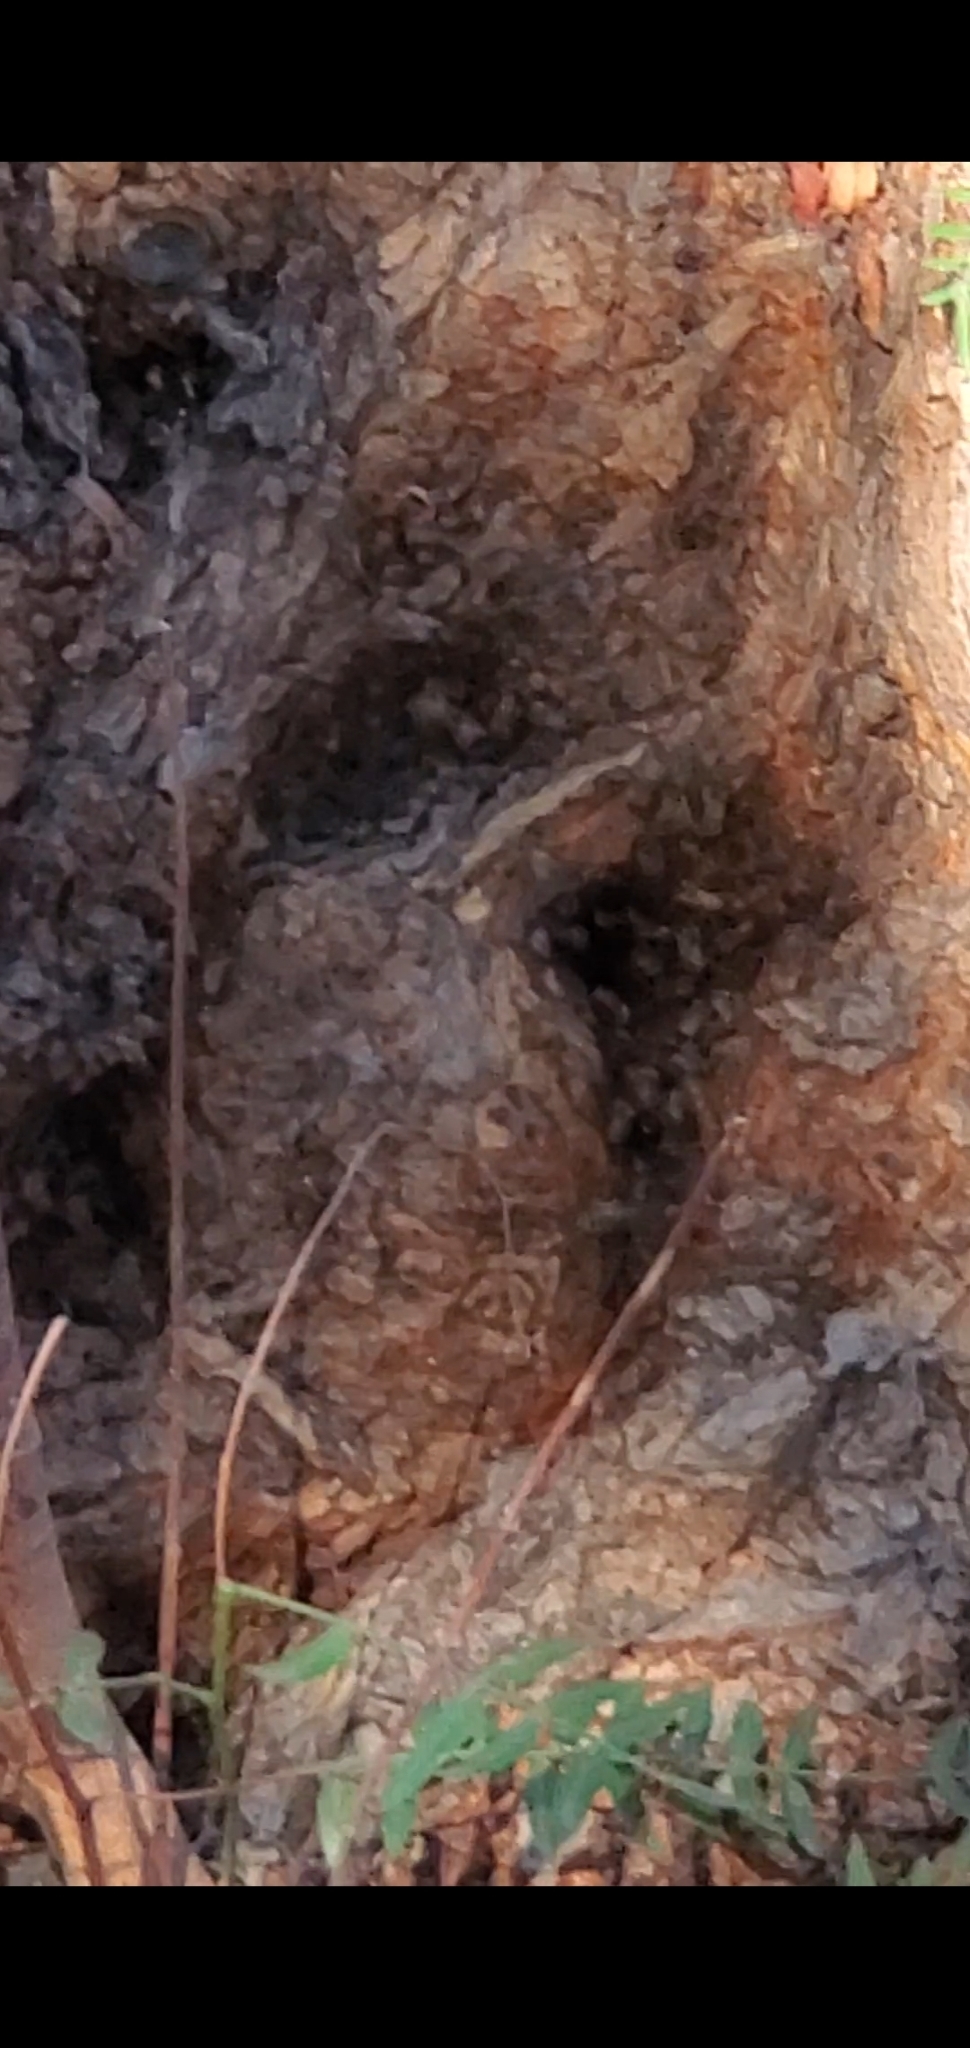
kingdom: Animalia
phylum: Arthropoda
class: Insecta
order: Hymenoptera
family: Apidae
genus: Apis
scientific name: Apis mellifera
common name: Honey bee
